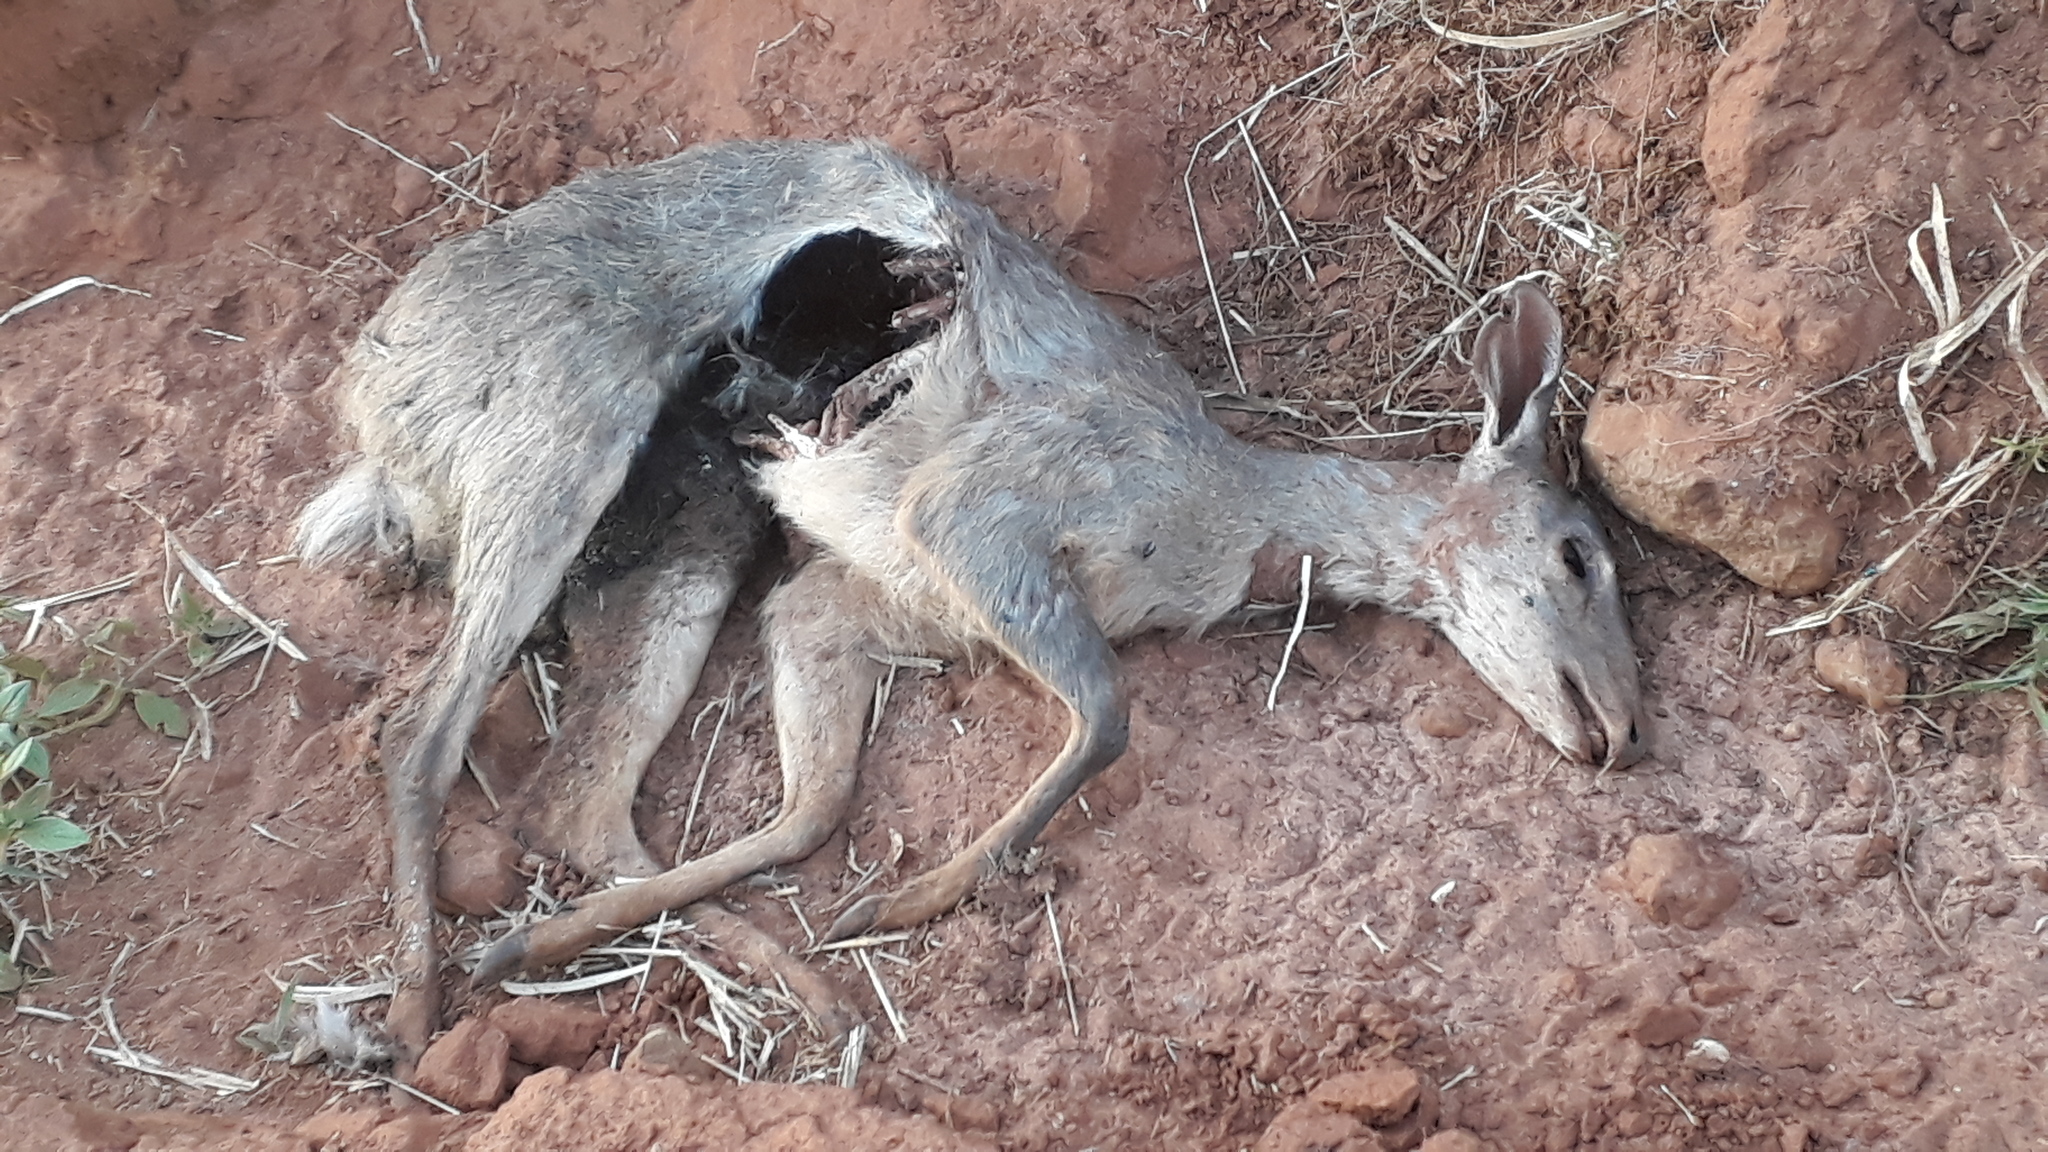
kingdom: Animalia
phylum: Chordata
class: Mammalia
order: Artiodactyla
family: Cervidae
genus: Mazama
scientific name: Mazama gouazoubira
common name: Gray brocket
